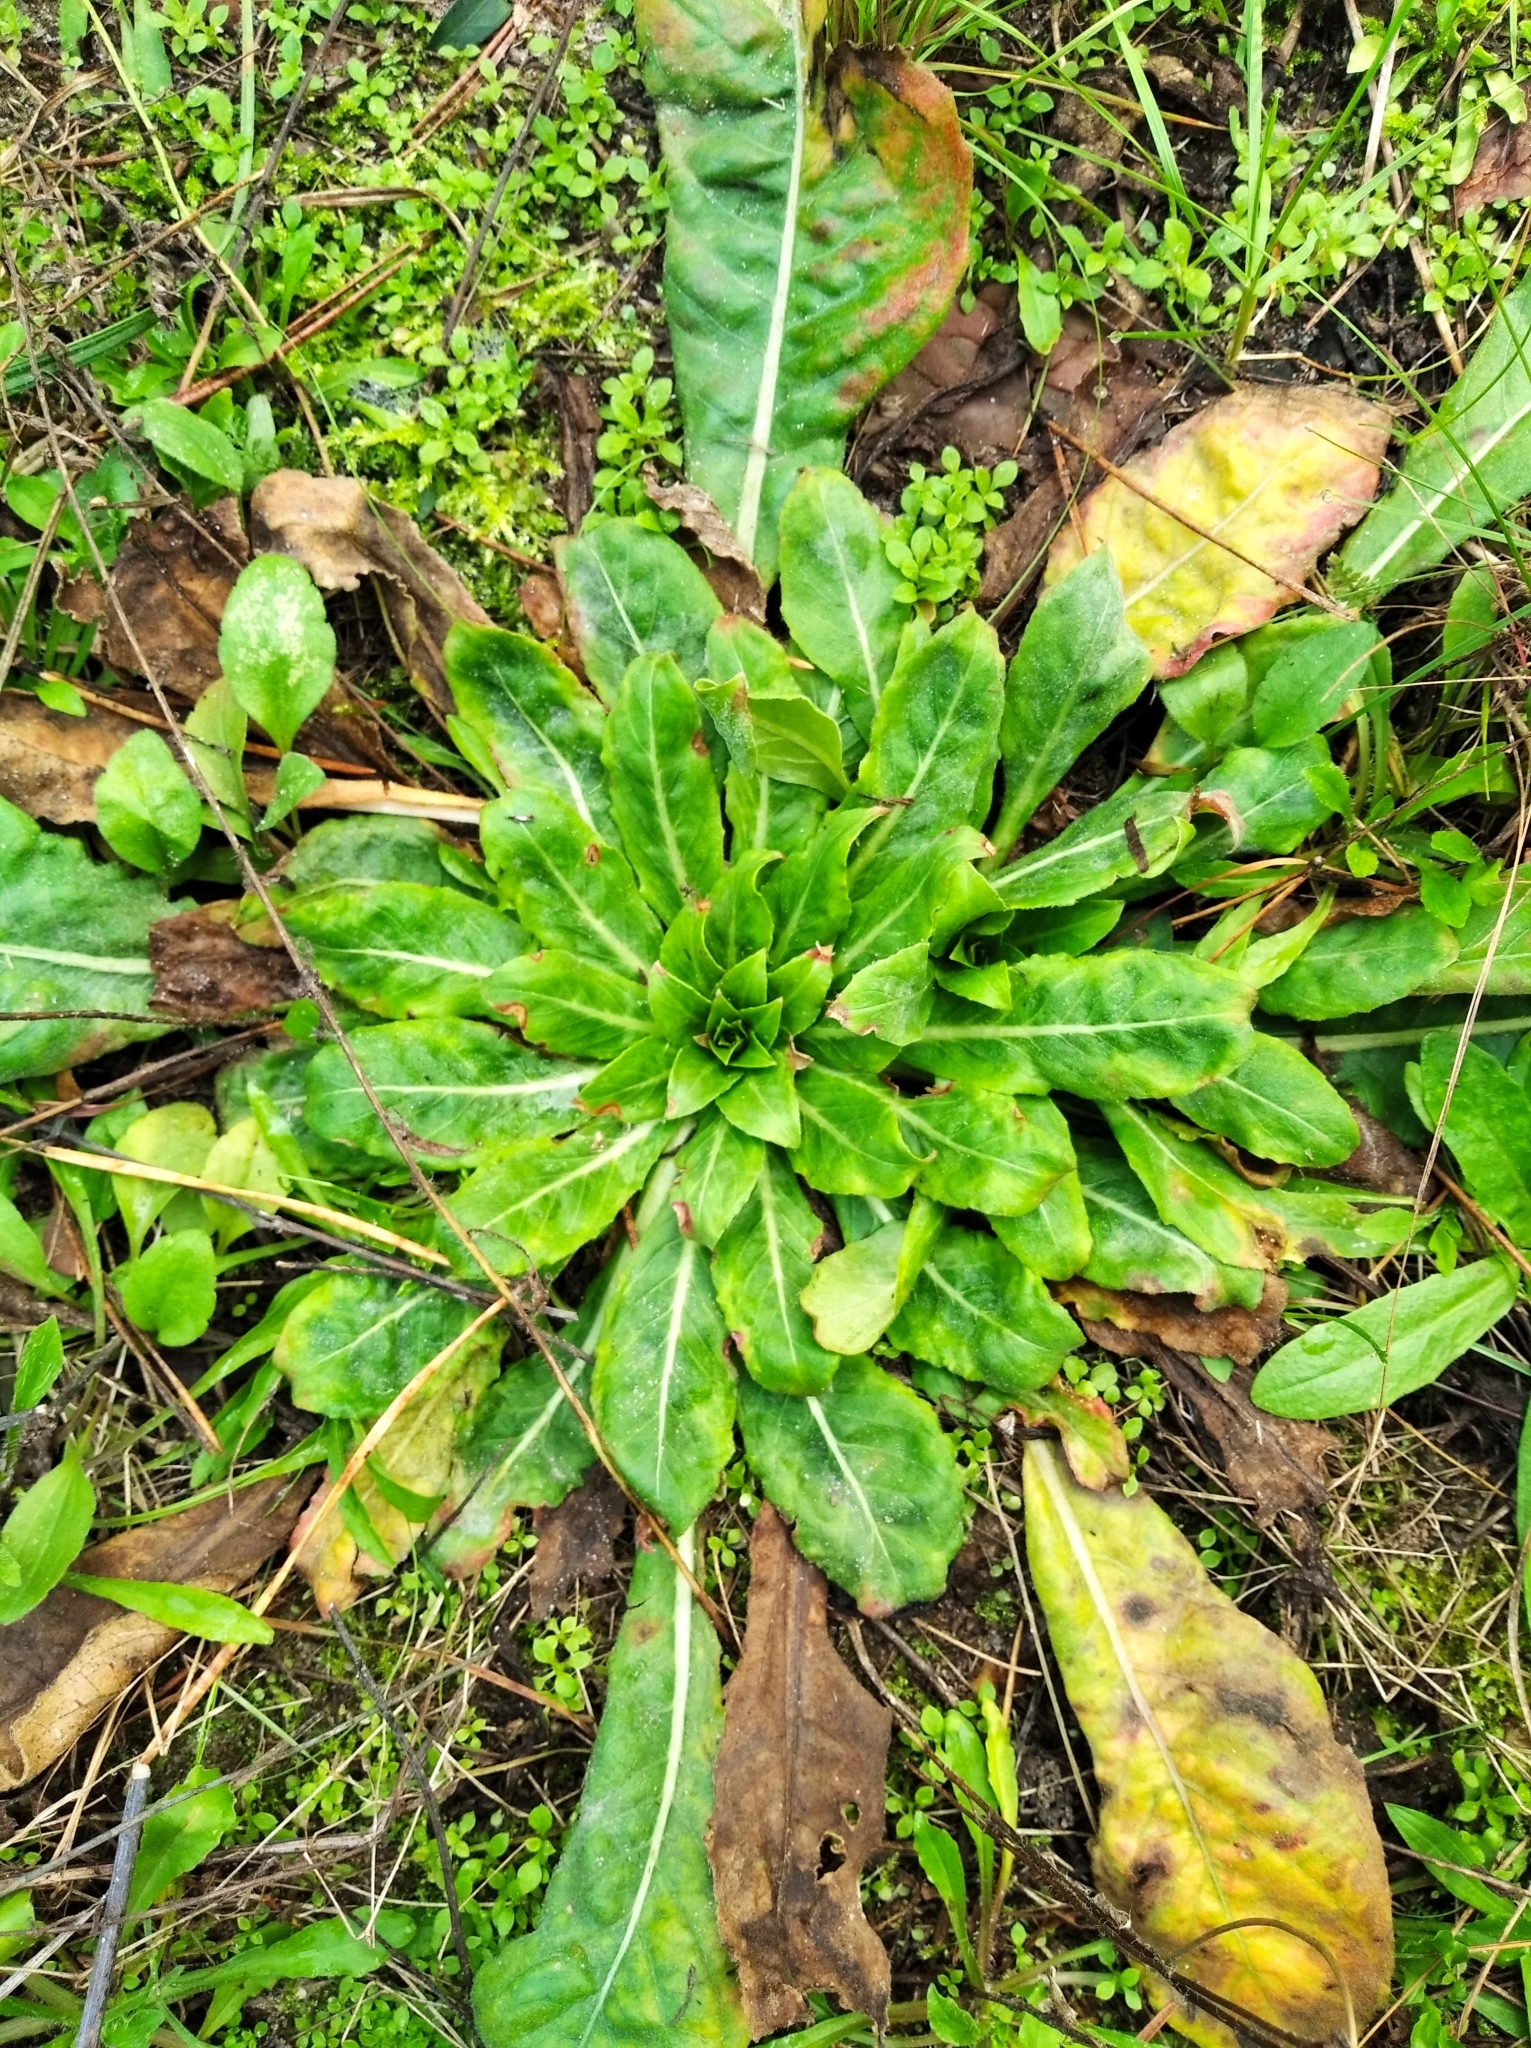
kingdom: Plantae
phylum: Tracheophyta
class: Magnoliopsida
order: Myrtales
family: Onagraceae
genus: Oenothera
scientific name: Oenothera biennis
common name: Common evening-primrose
